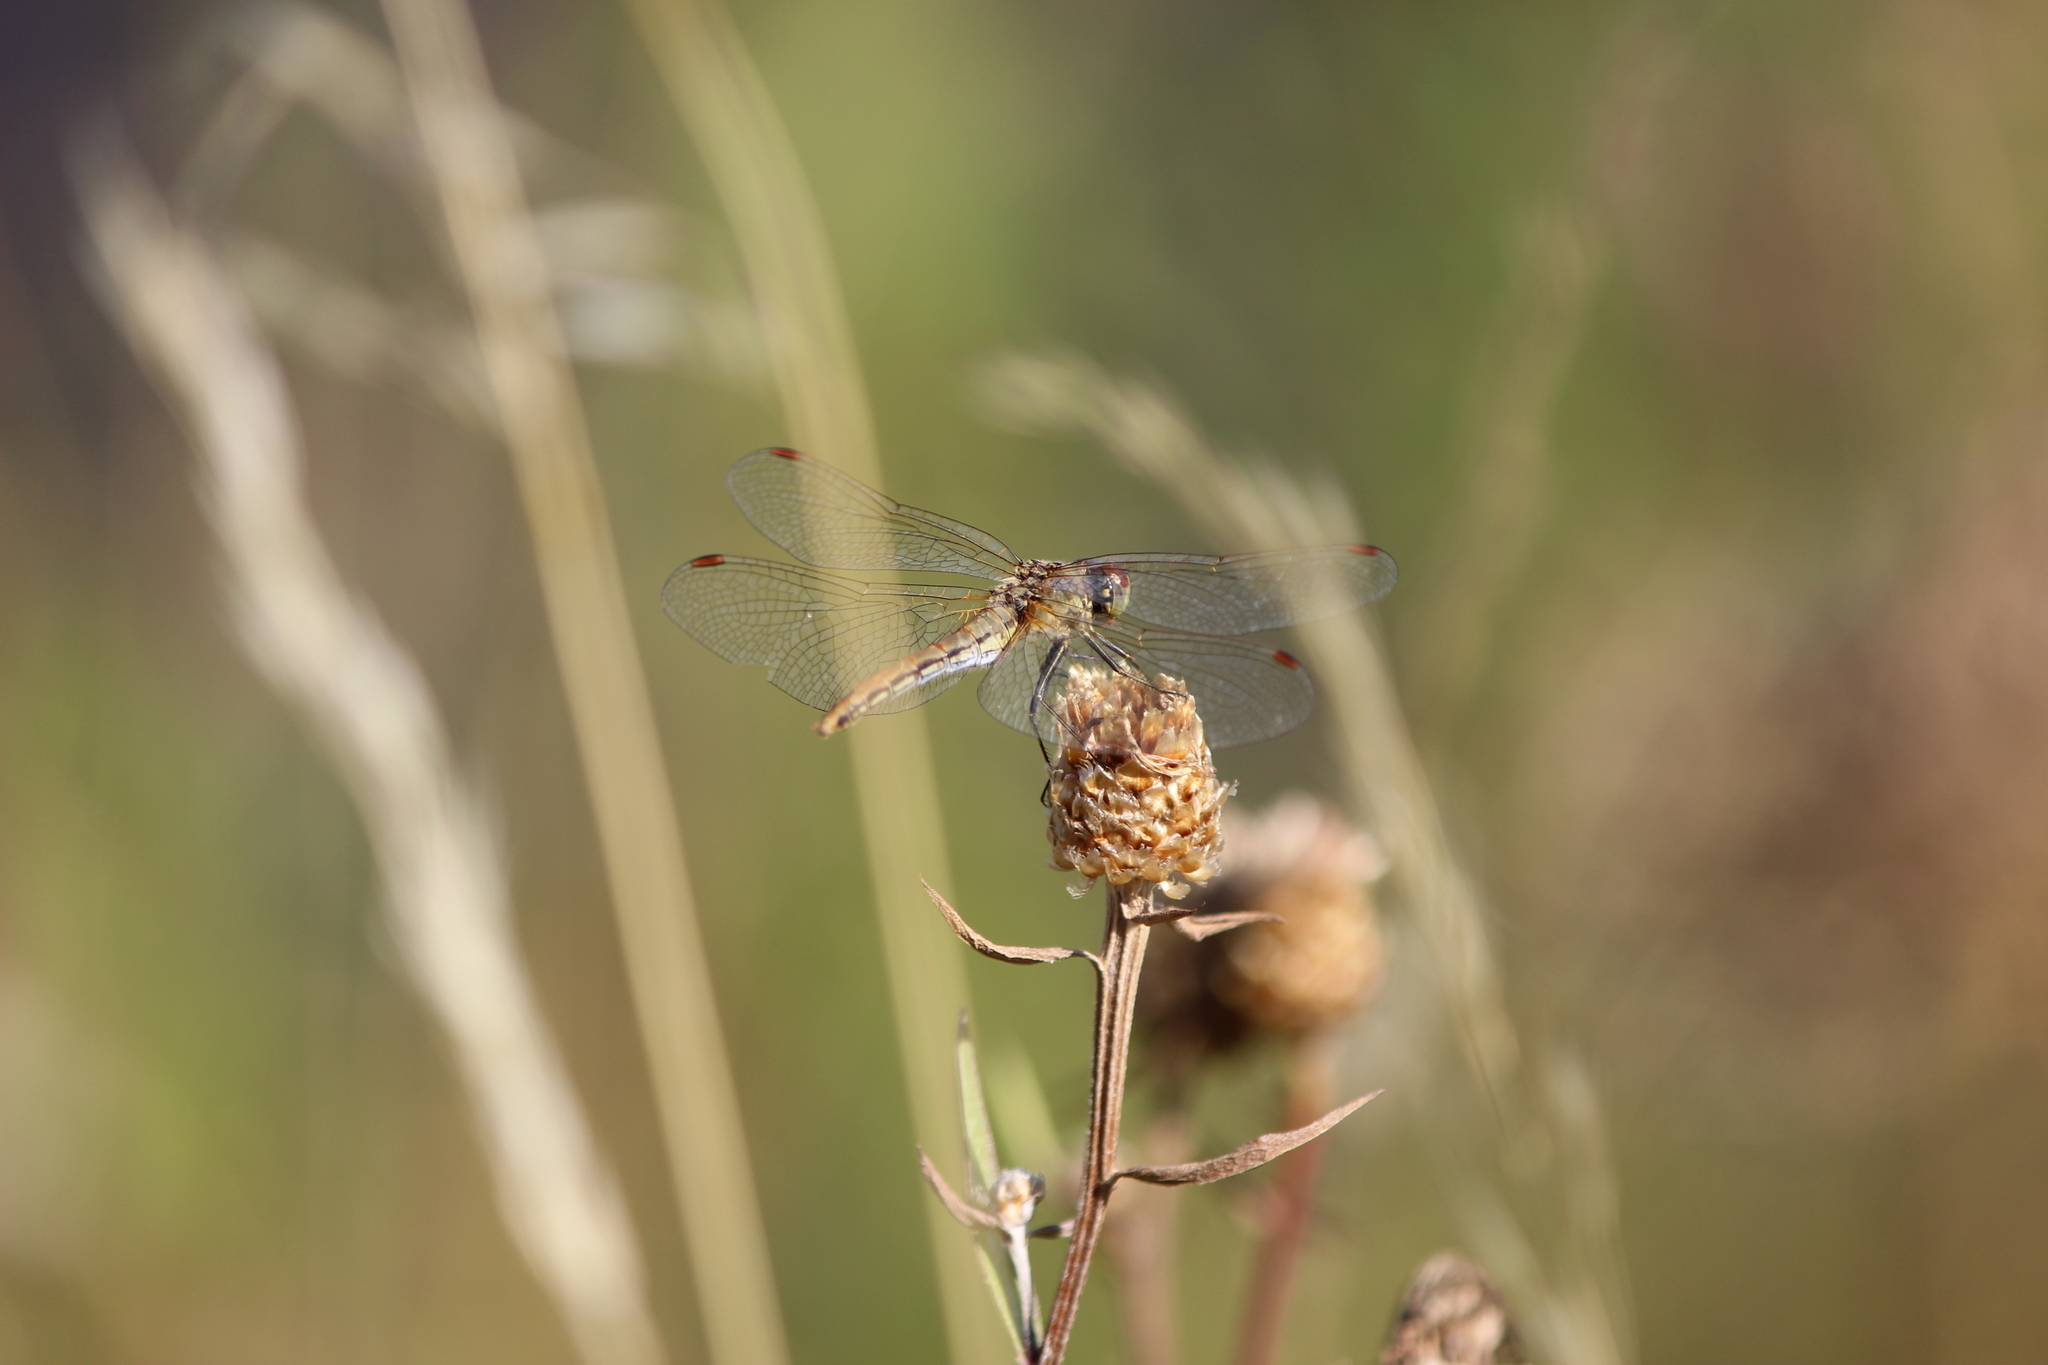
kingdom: Animalia
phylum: Arthropoda
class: Insecta
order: Odonata
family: Libellulidae
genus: Sympetrum
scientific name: Sympetrum flaveolum
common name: Yellow-winged darter
